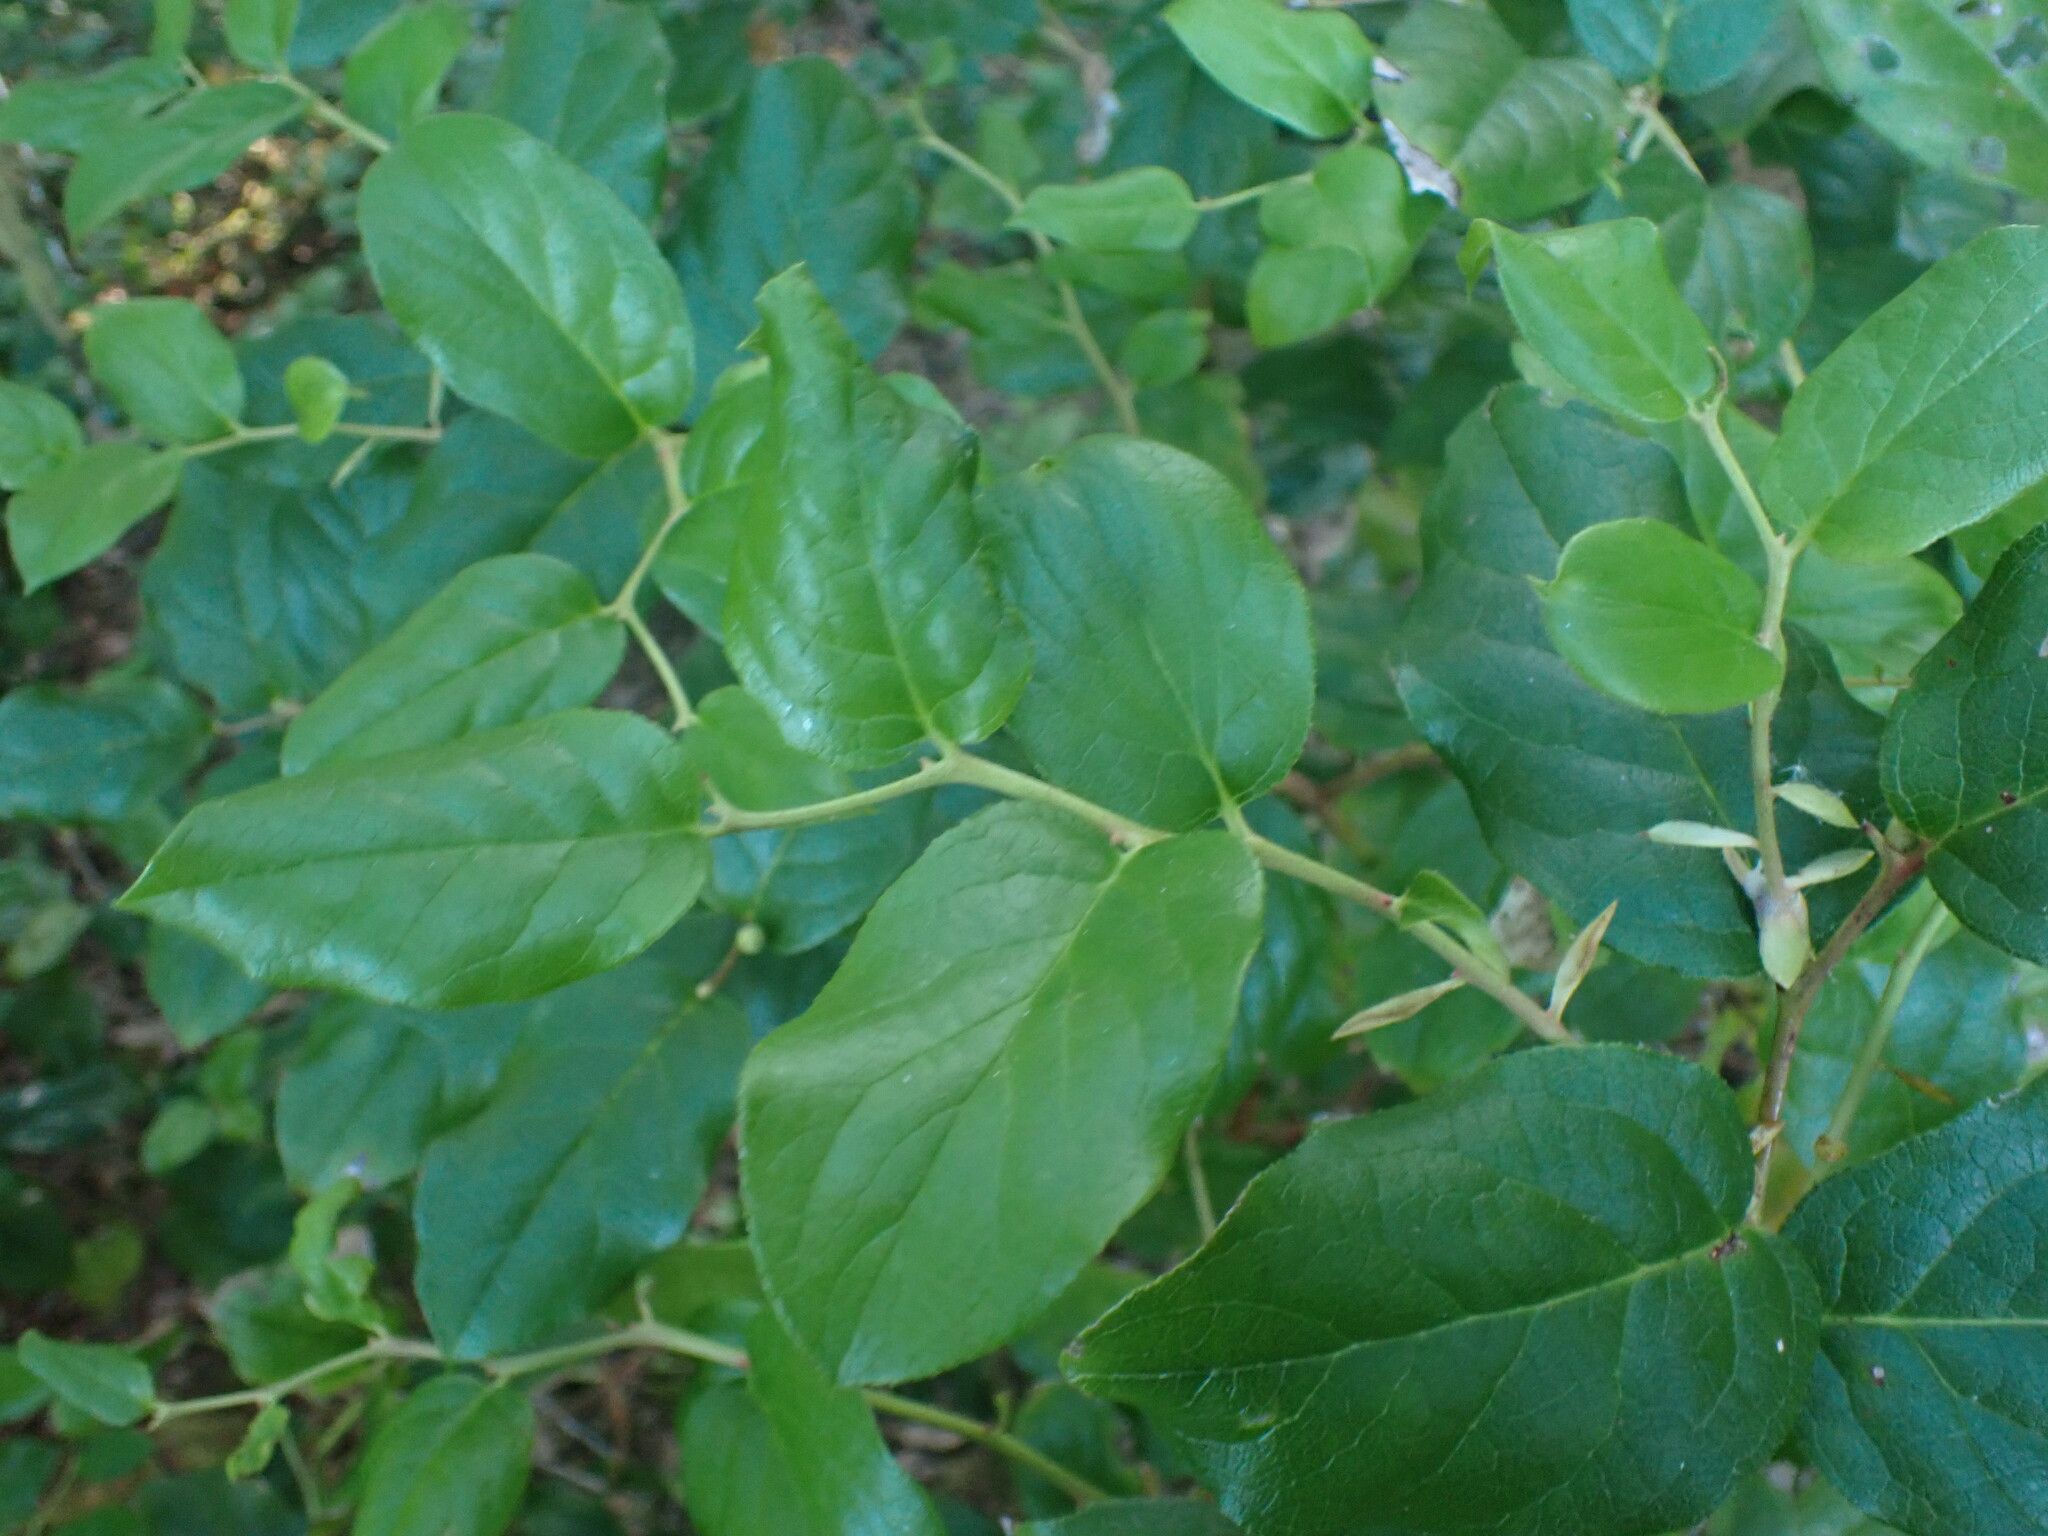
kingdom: Plantae
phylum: Tracheophyta
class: Magnoliopsida
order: Ericales
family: Ericaceae
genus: Gaultheria
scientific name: Gaultheria shallon
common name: Shallon
